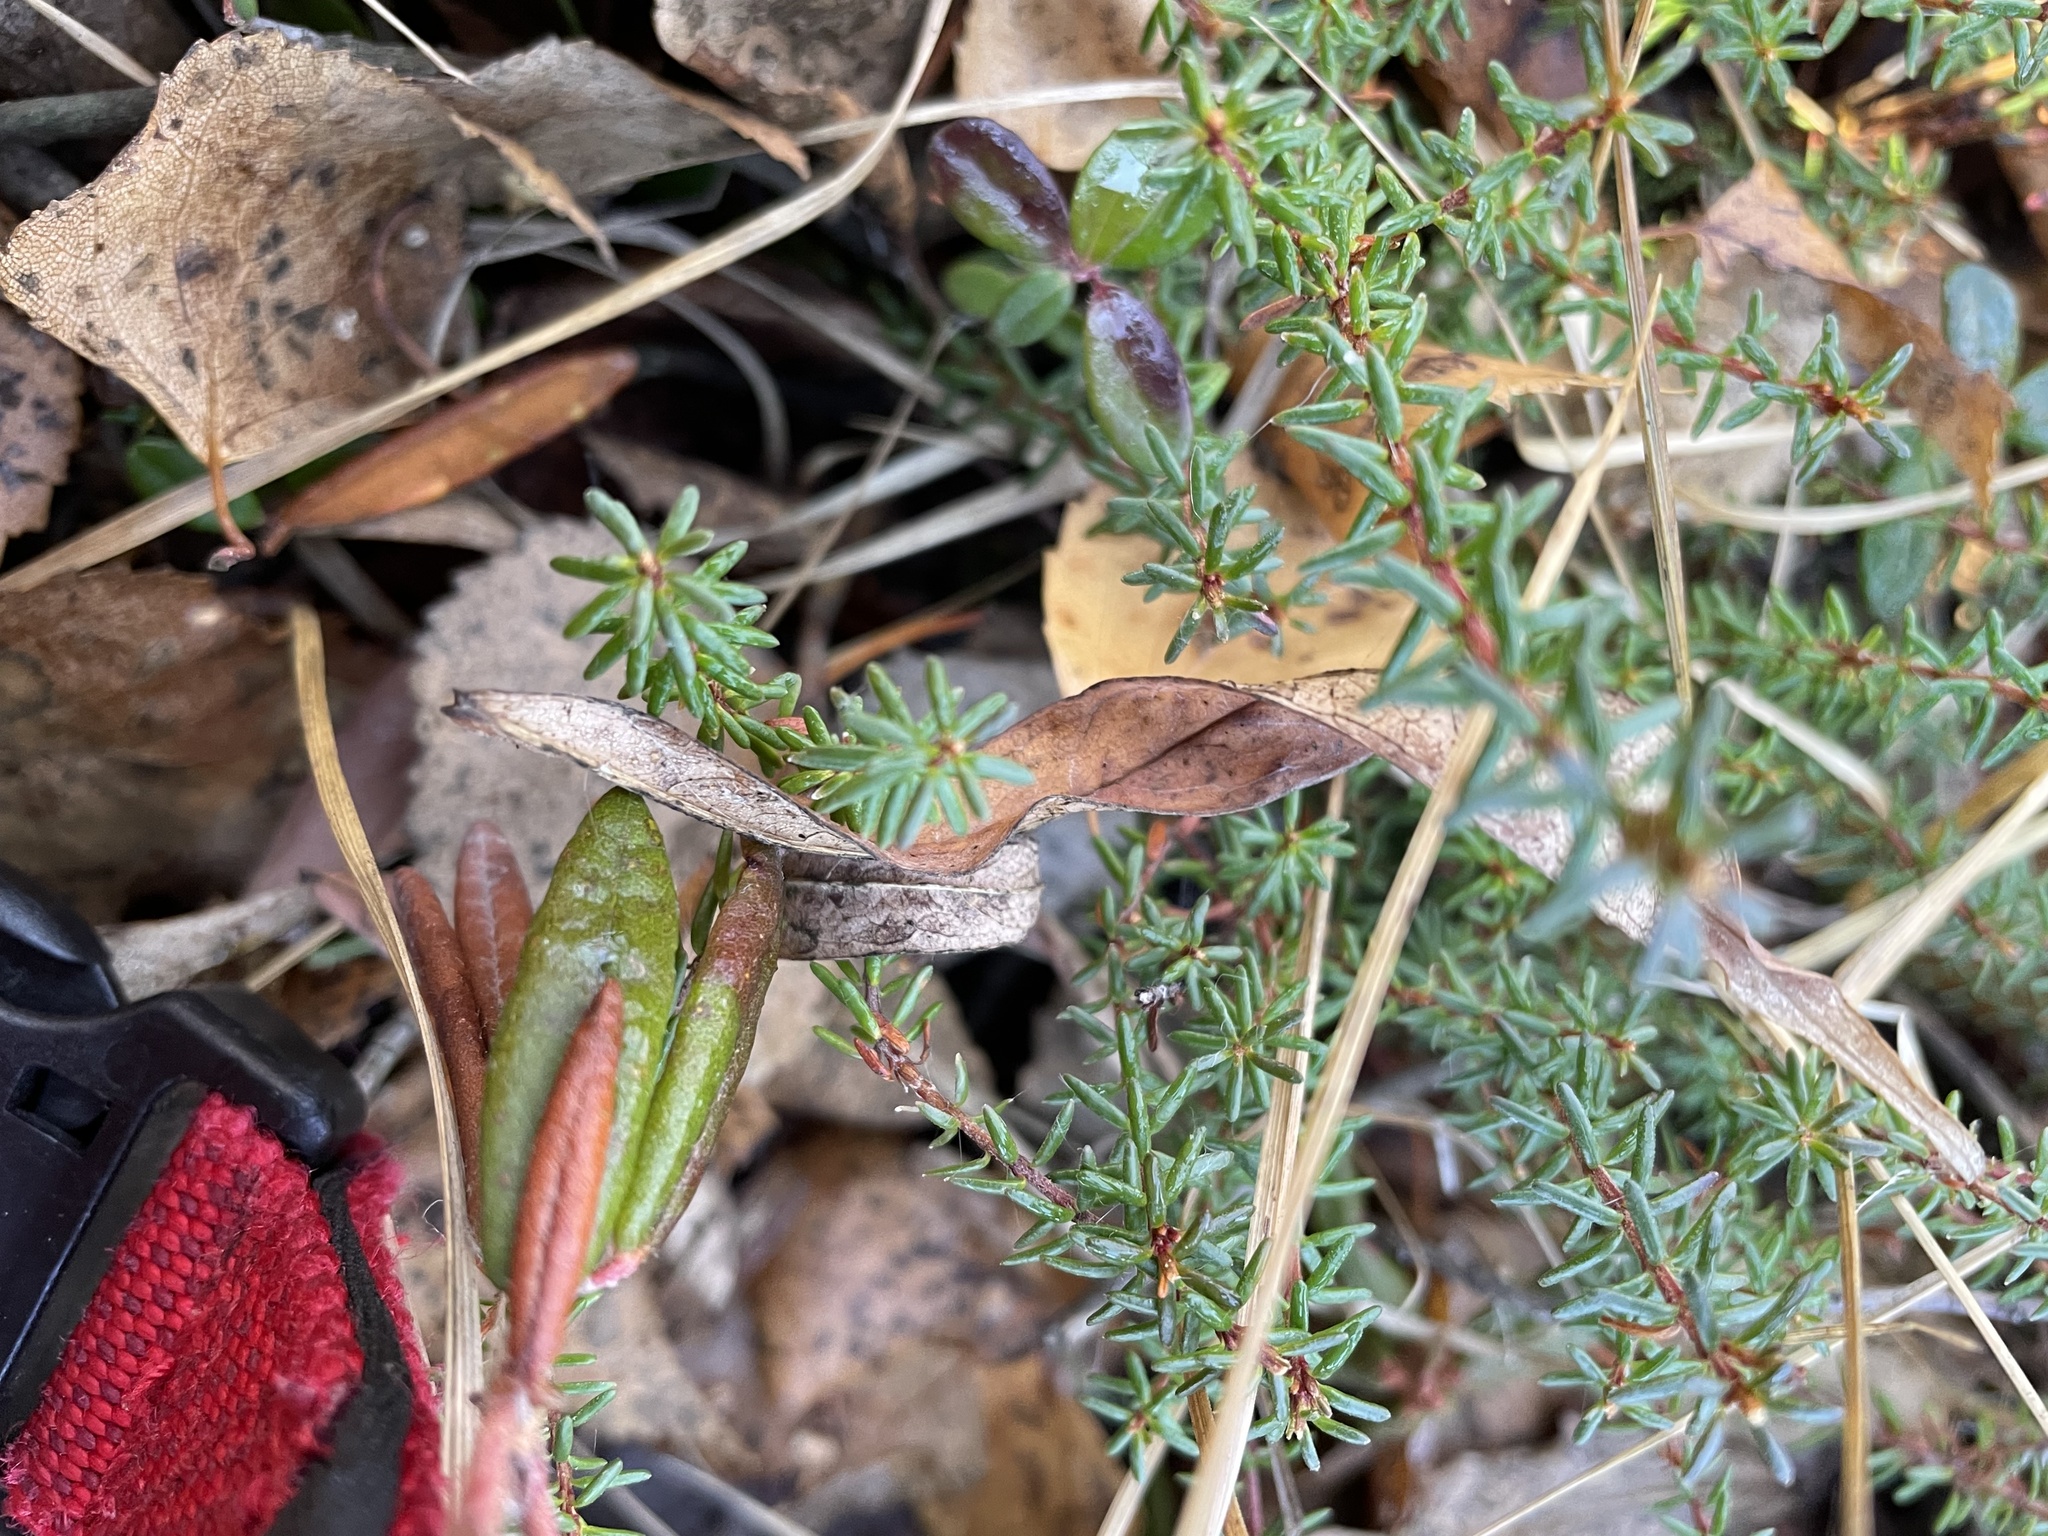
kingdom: Plantae
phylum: Tracheophyta
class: Magnoliopsida
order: Ericales
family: Ericaceae
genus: Empetrum
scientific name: Empetrum nigrum
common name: Black crowberry
